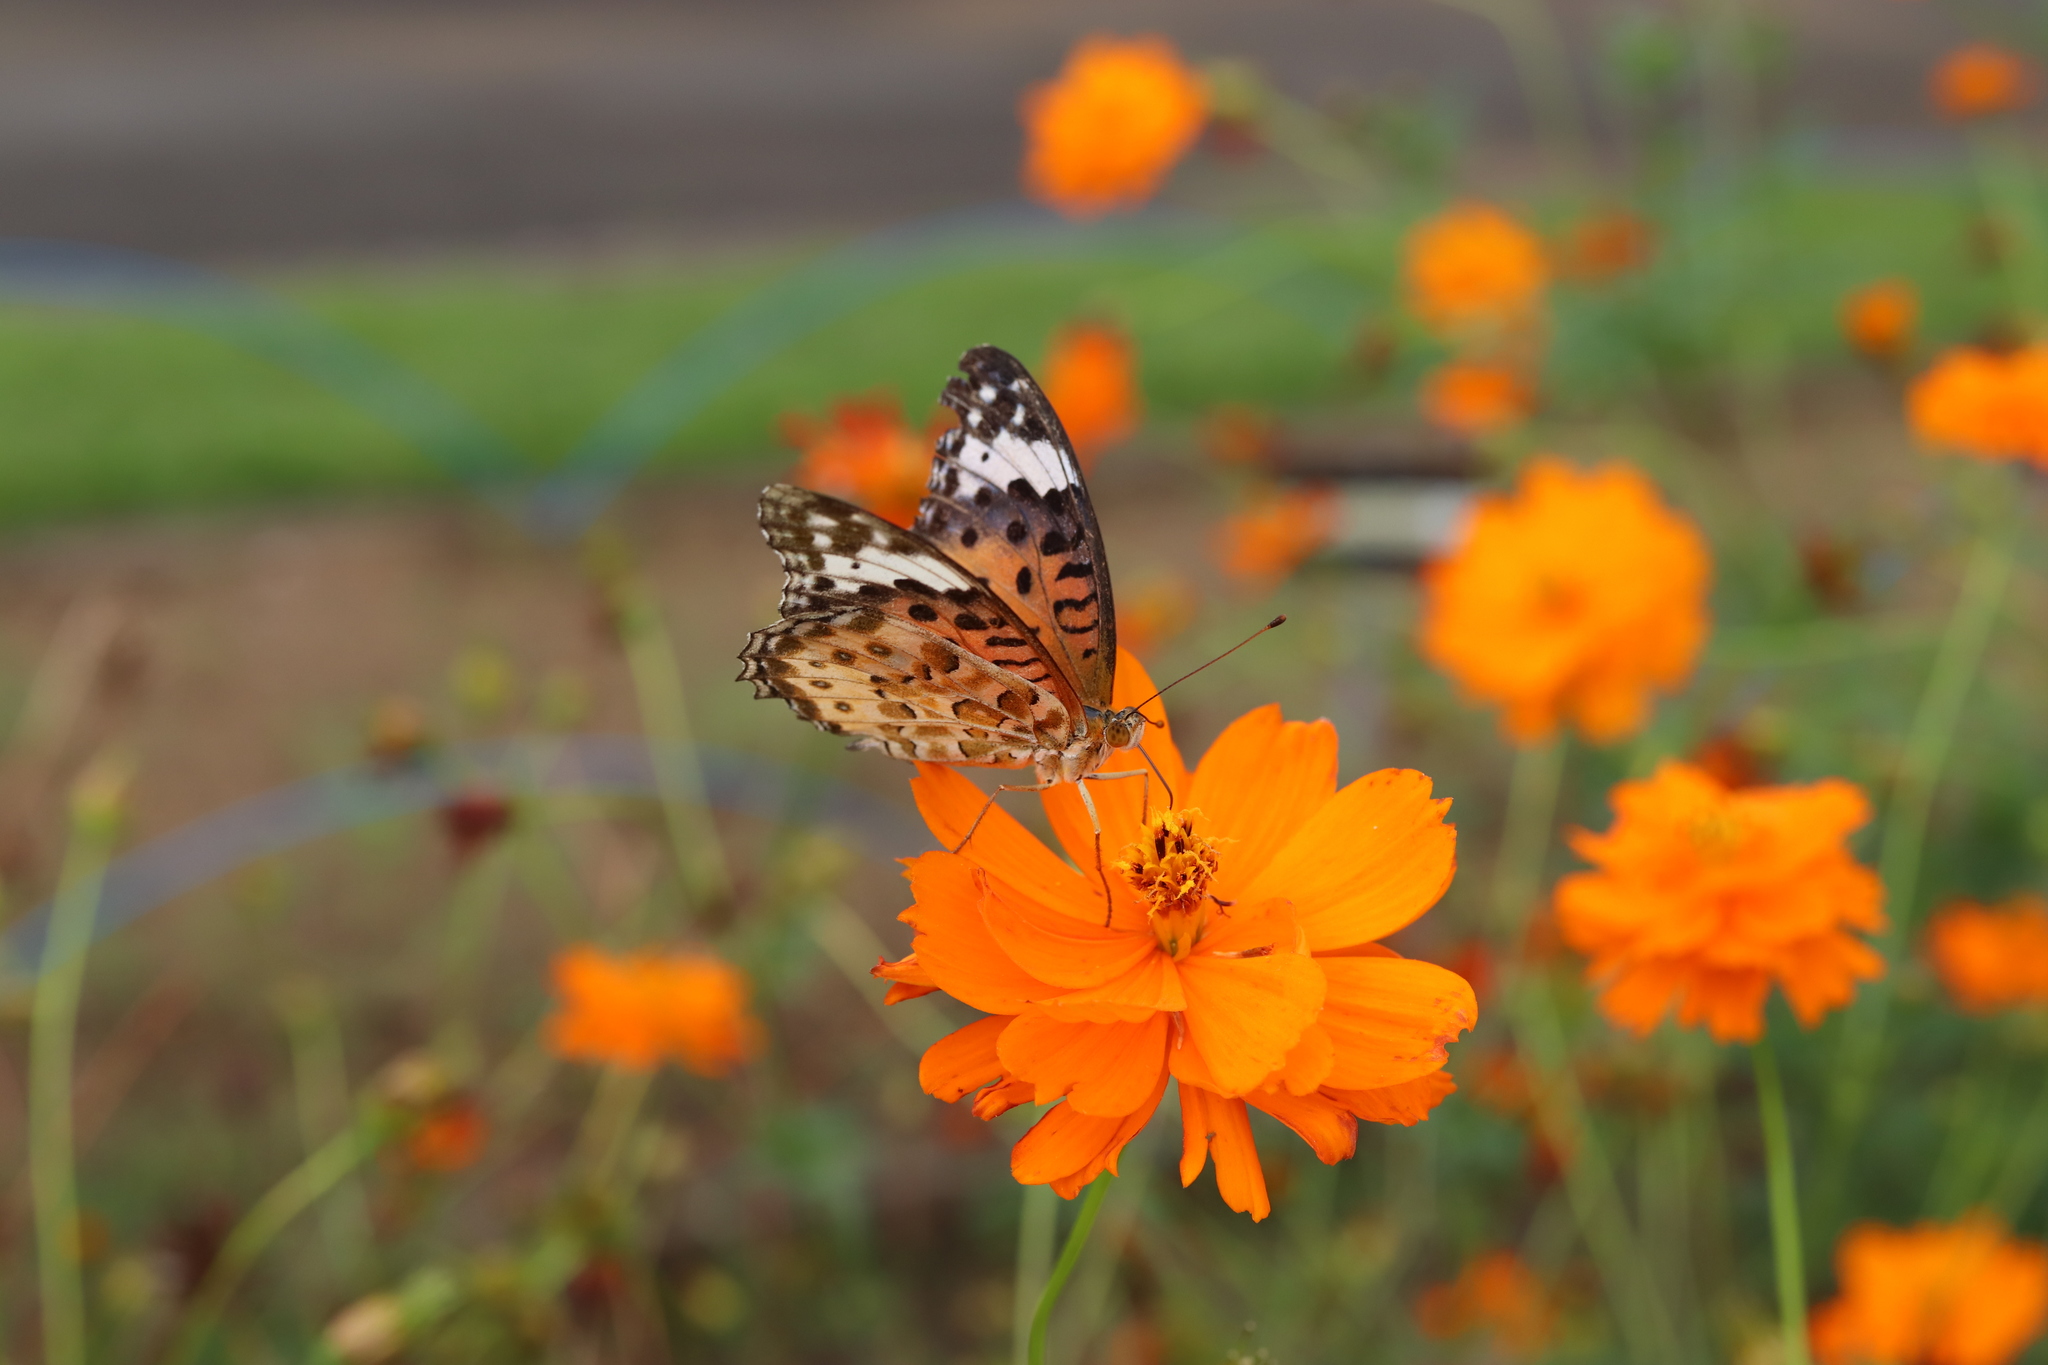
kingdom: Animalia
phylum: Arthropoda
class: Insecta
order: Lepidoptera
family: Nymphalidae
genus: Argynnis
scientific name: Argynnis hyperbius
